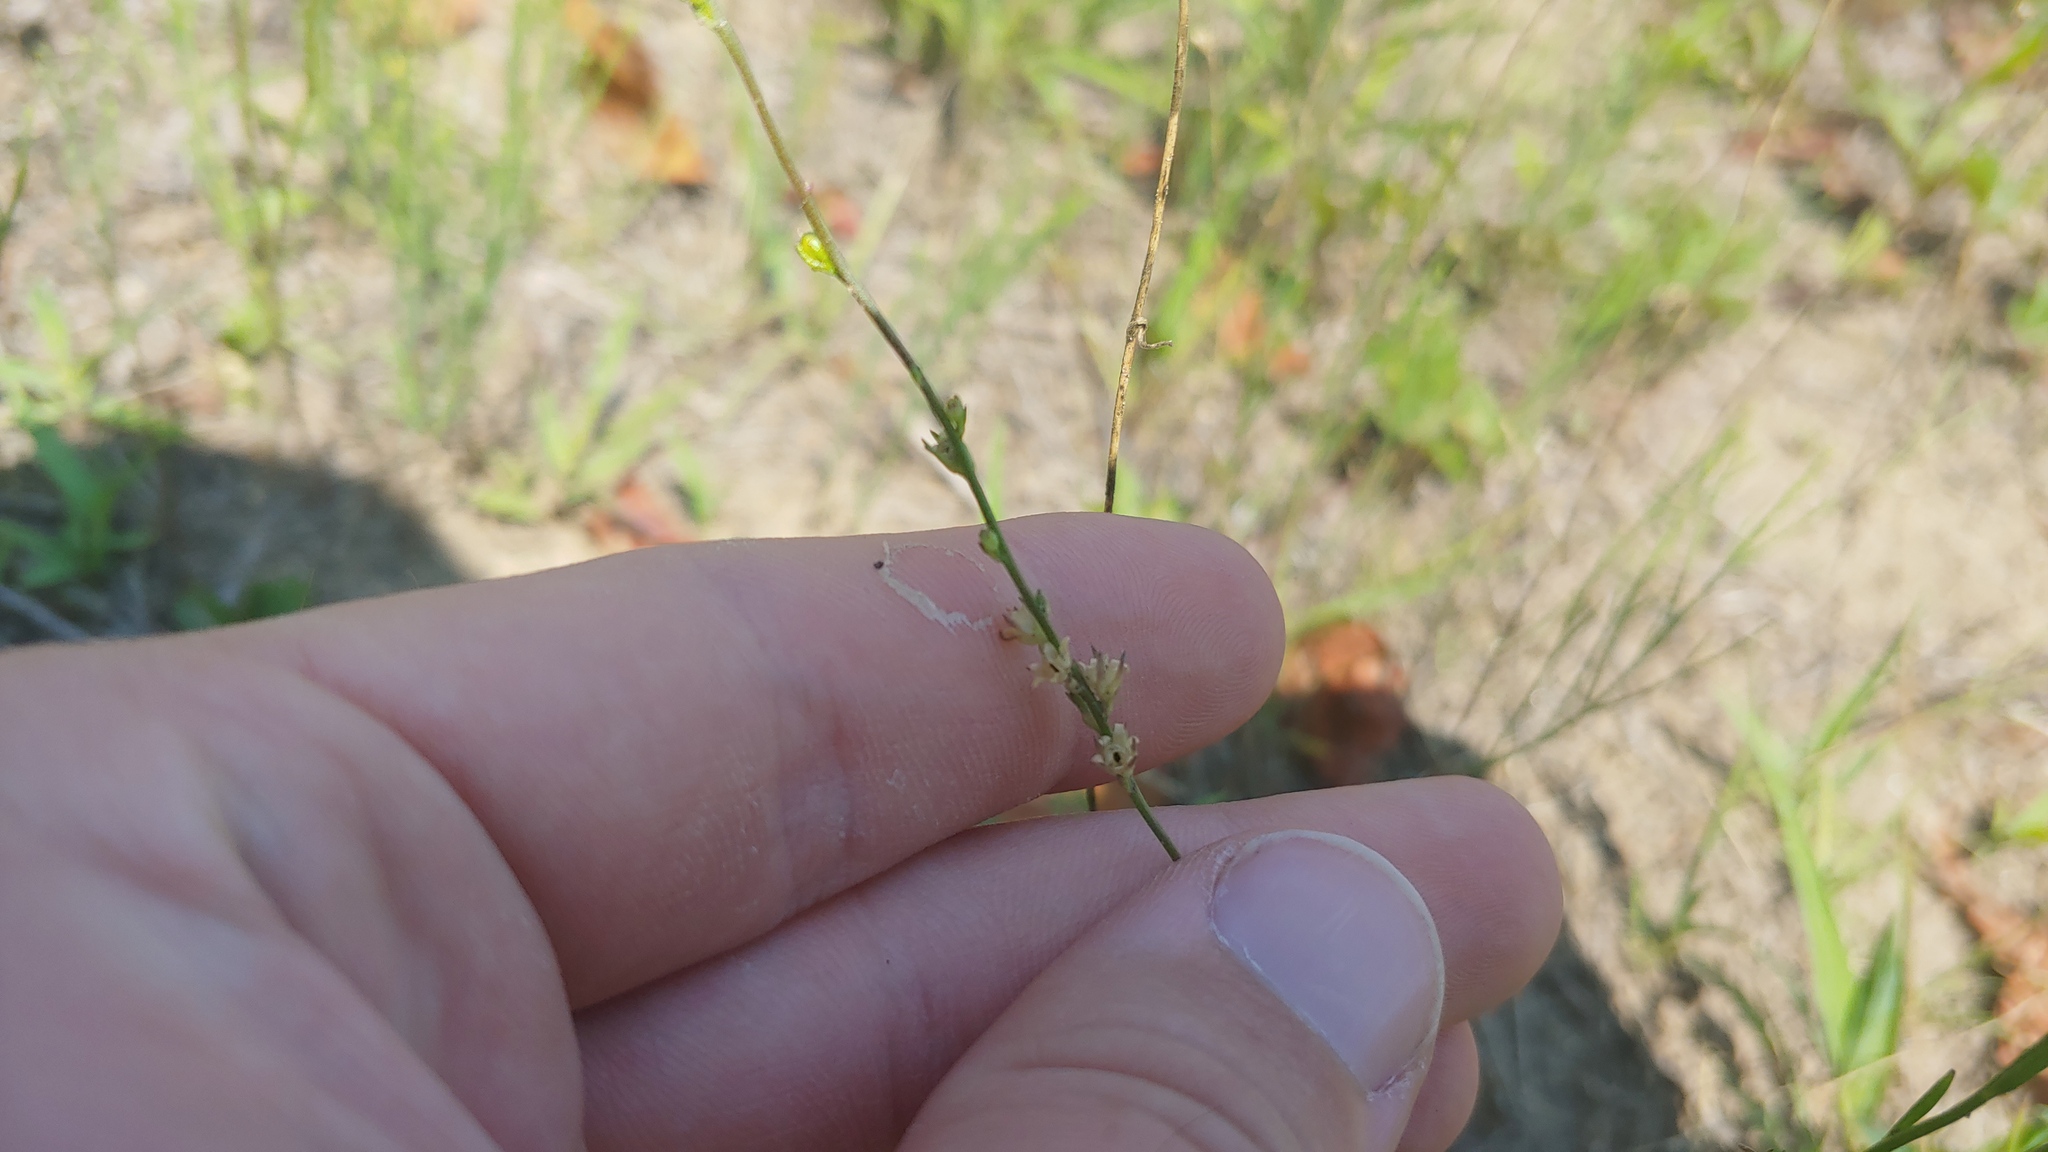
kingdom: Plantae
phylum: Tracheophyta
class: Magnoliopsida
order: Lamiales
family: Plantaginaceae
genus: Nuttallanthus
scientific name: Nuttallanthus canadensis
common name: Blue toadflax
